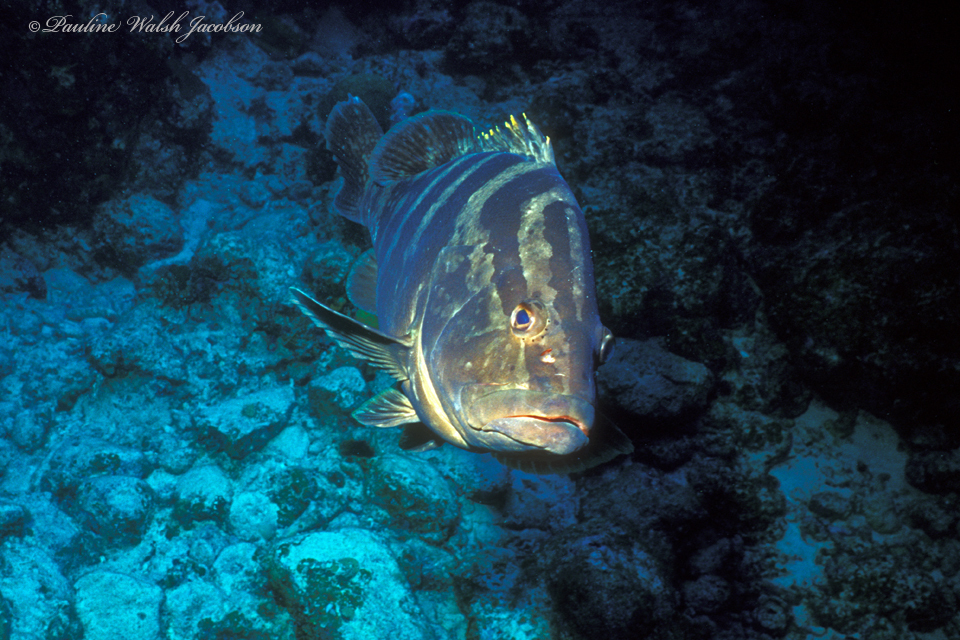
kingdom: Animalia
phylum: Chordata
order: Perciformes
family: Serranidae
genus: Epinephelus
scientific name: Epinephelus striatus
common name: Nassau grouper
